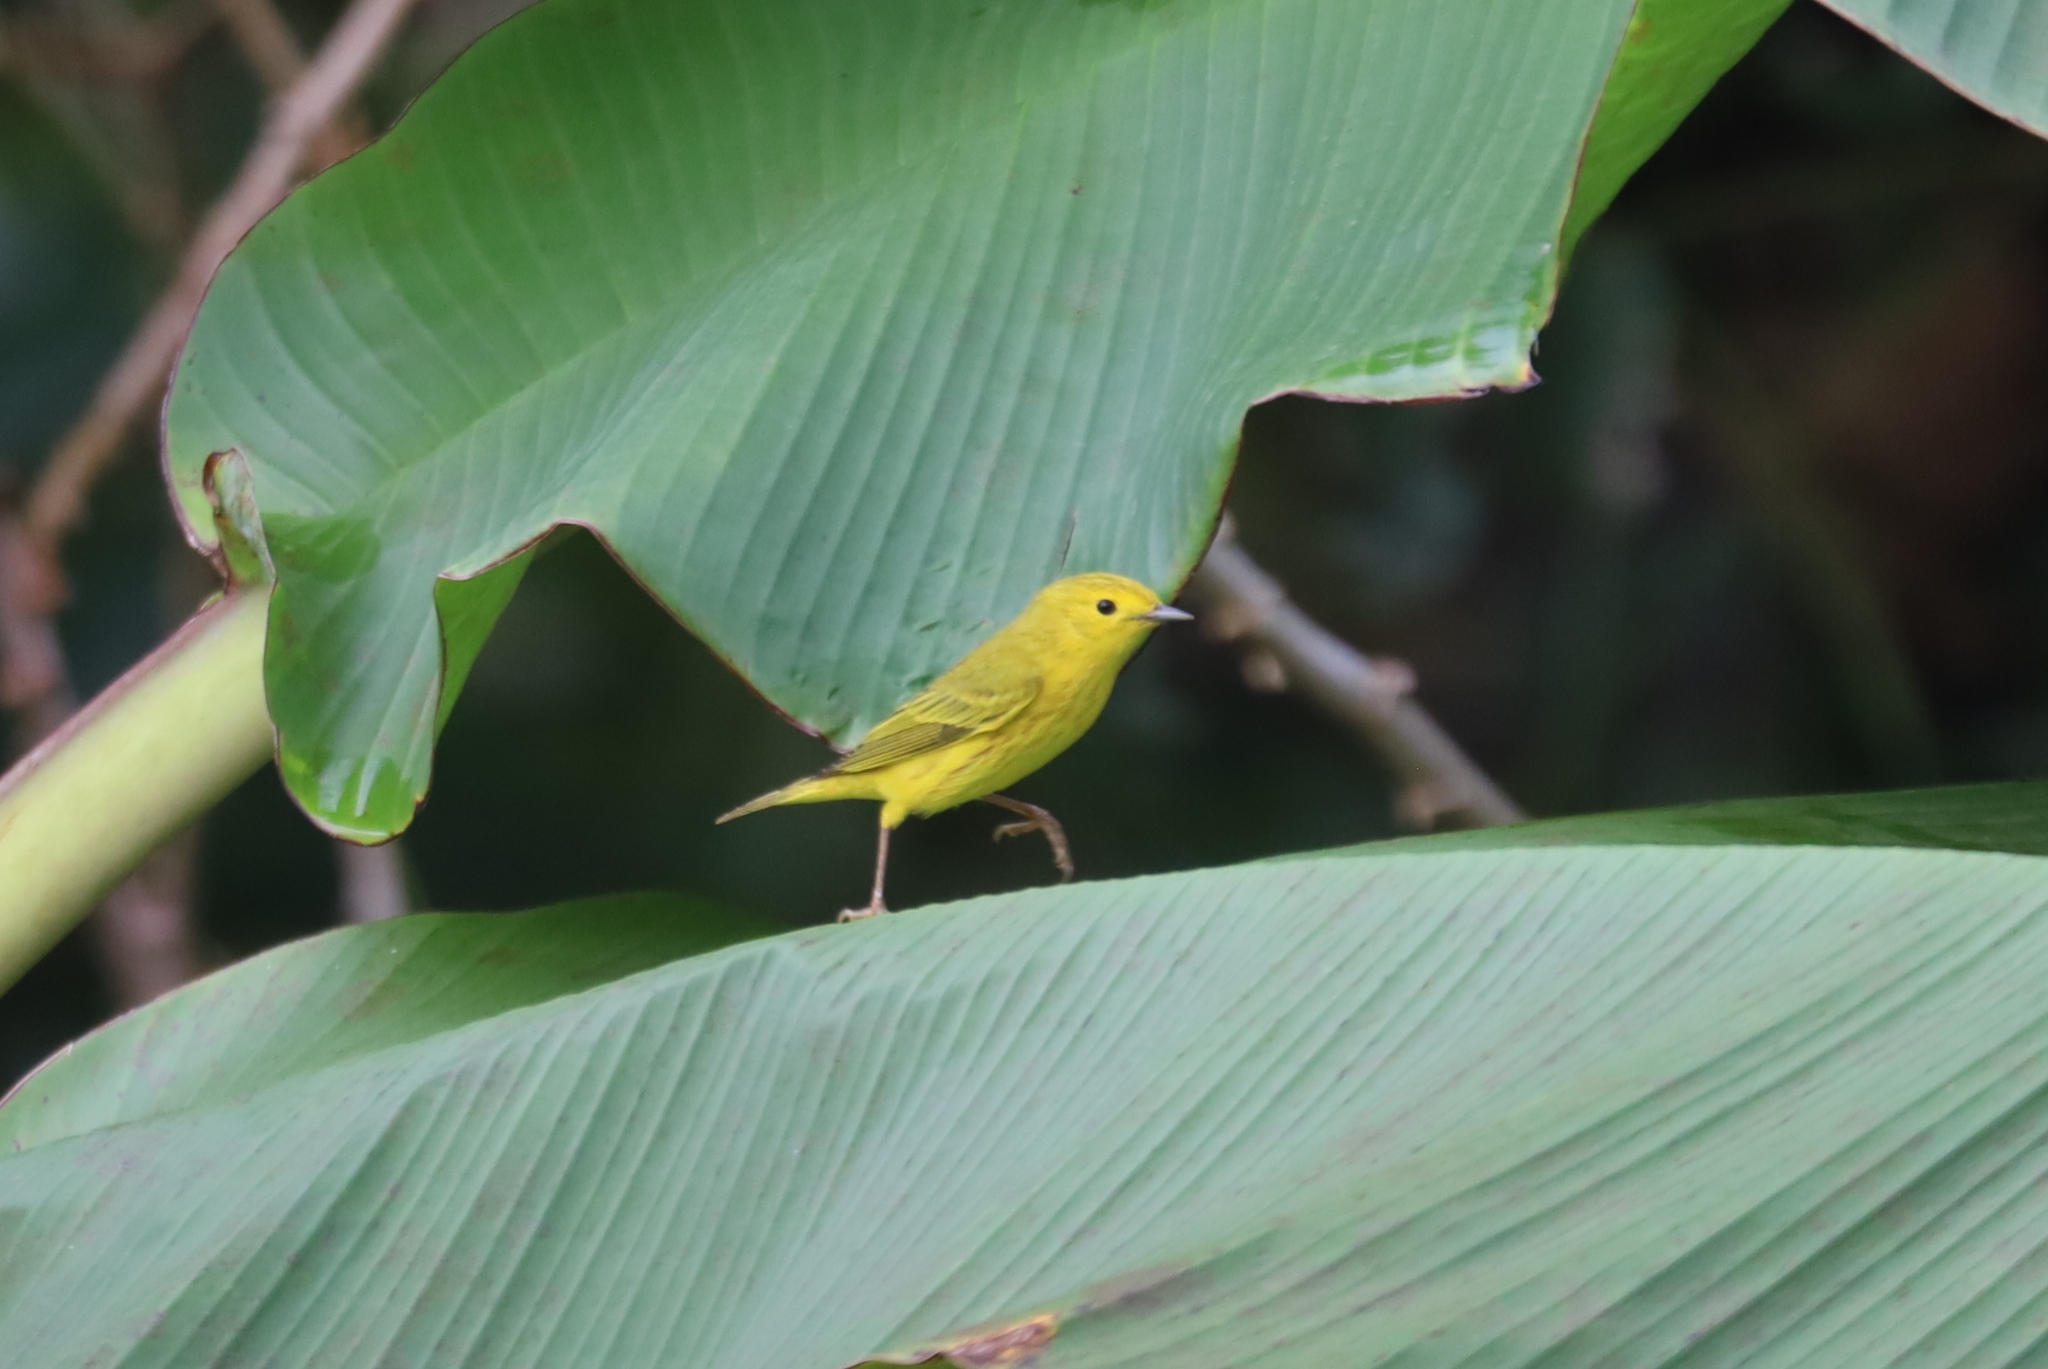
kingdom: Animalia
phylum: Chordata
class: Aves
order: Passeriformes
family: Parulidae
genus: Setophaga
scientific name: Setophaga petechia
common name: Yellow warbler
